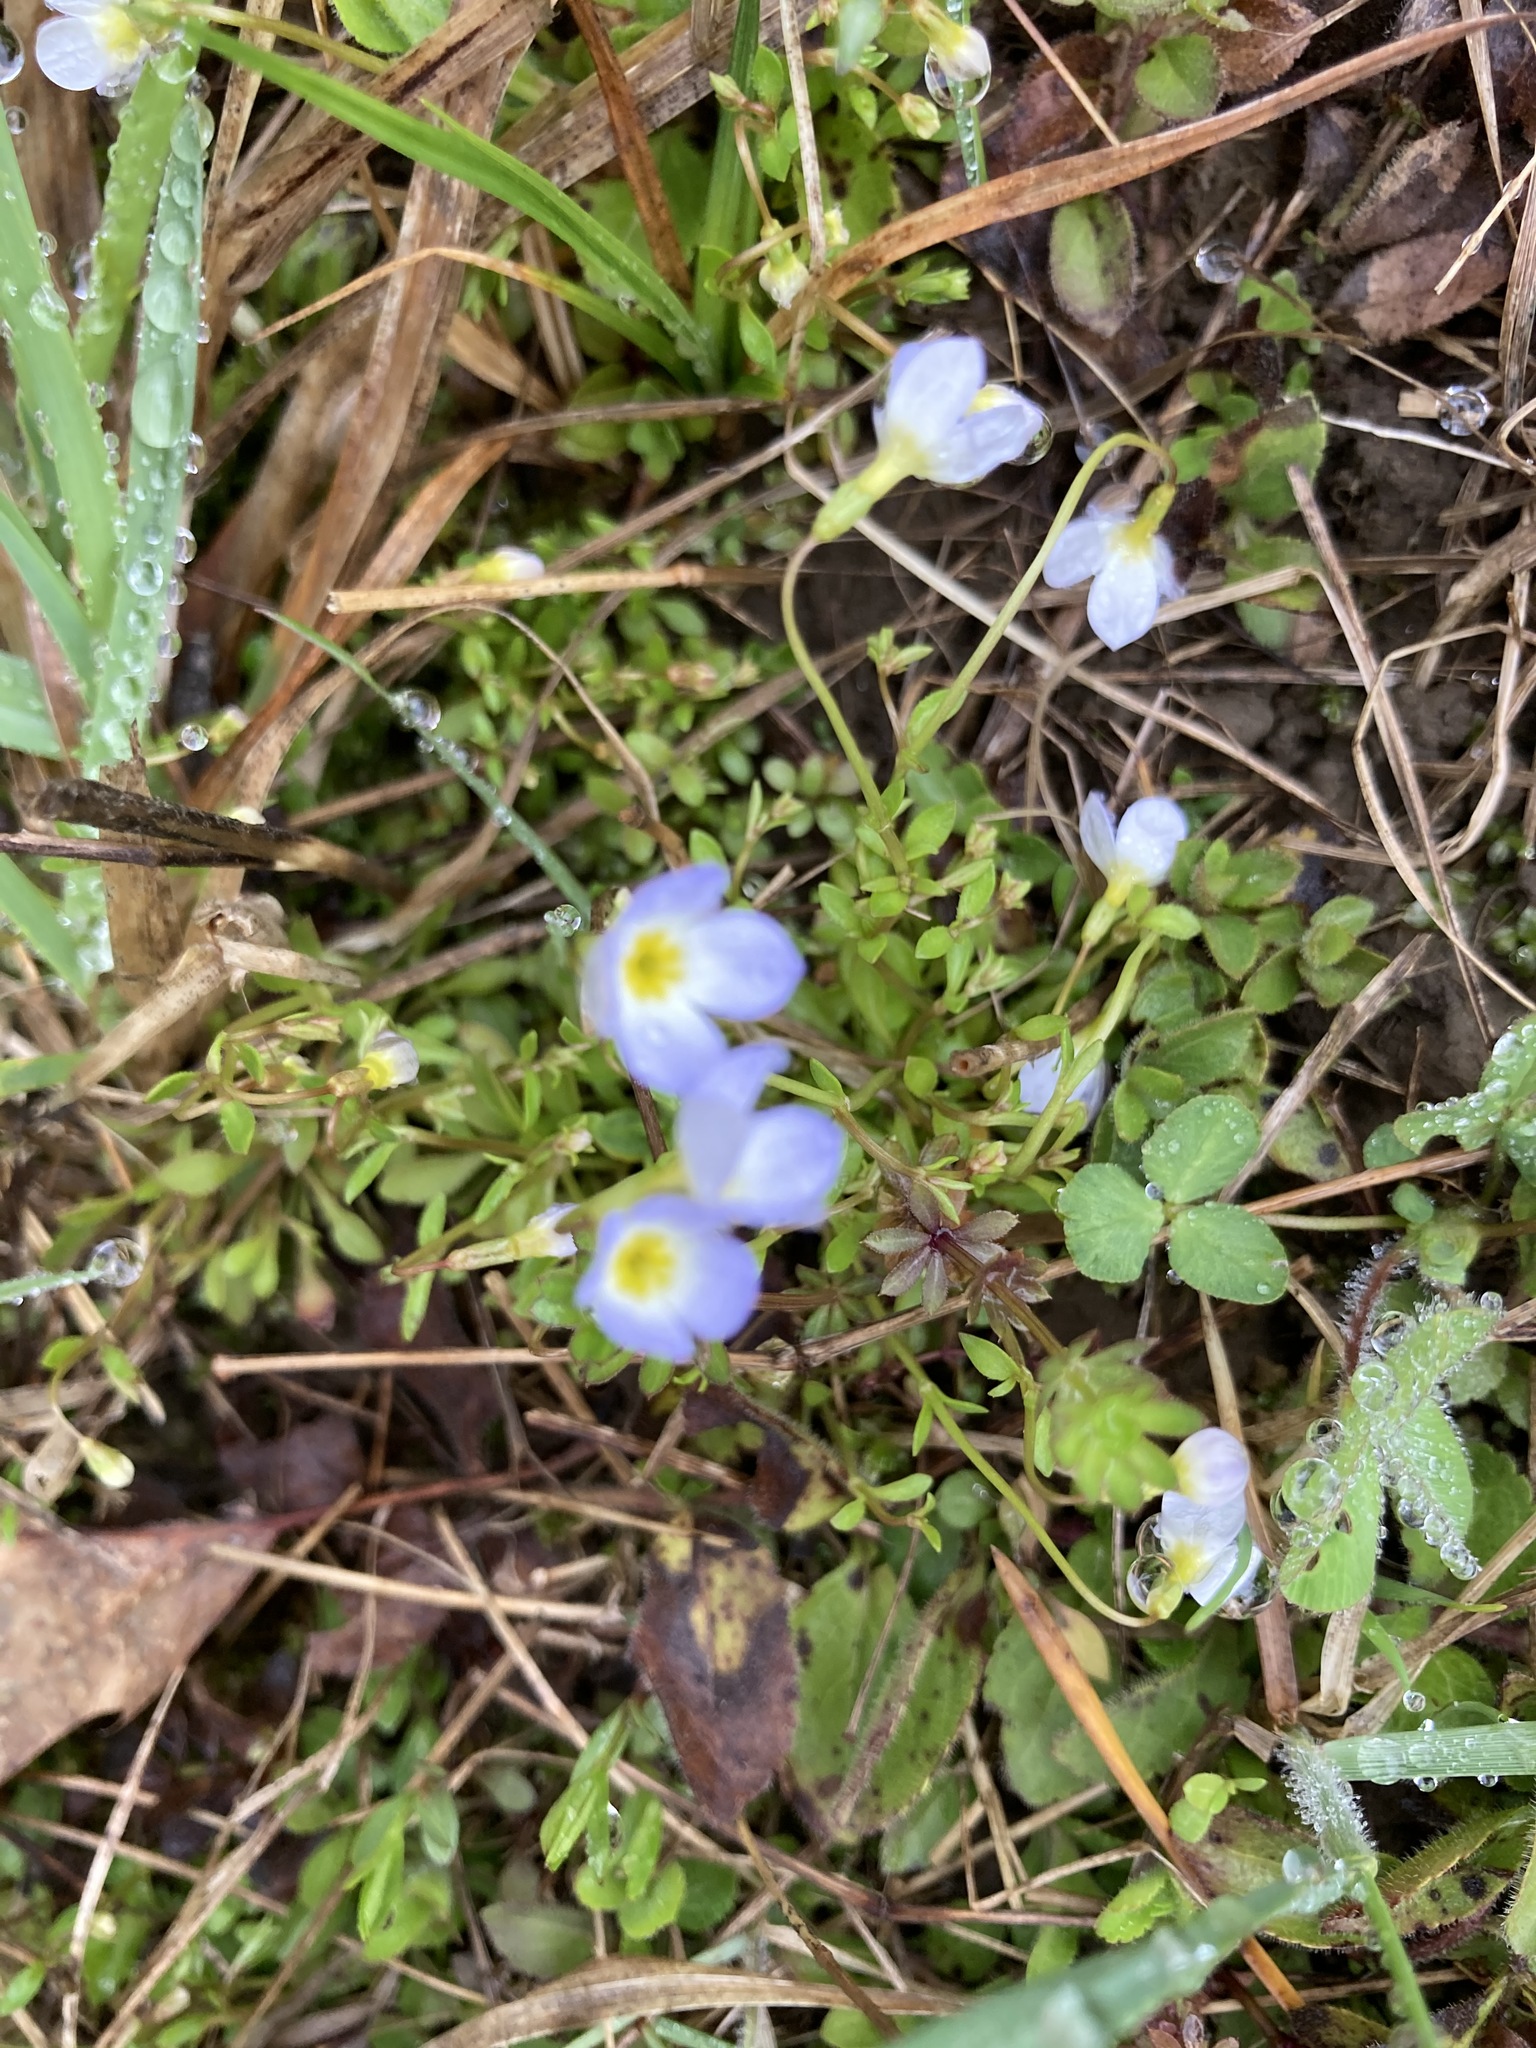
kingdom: Plantae
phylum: Tracheophyta
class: Magnoliopsida
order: Gentianales
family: Rubiaceae
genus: Houstonia
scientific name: Houstonia caerulea
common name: Bluets
